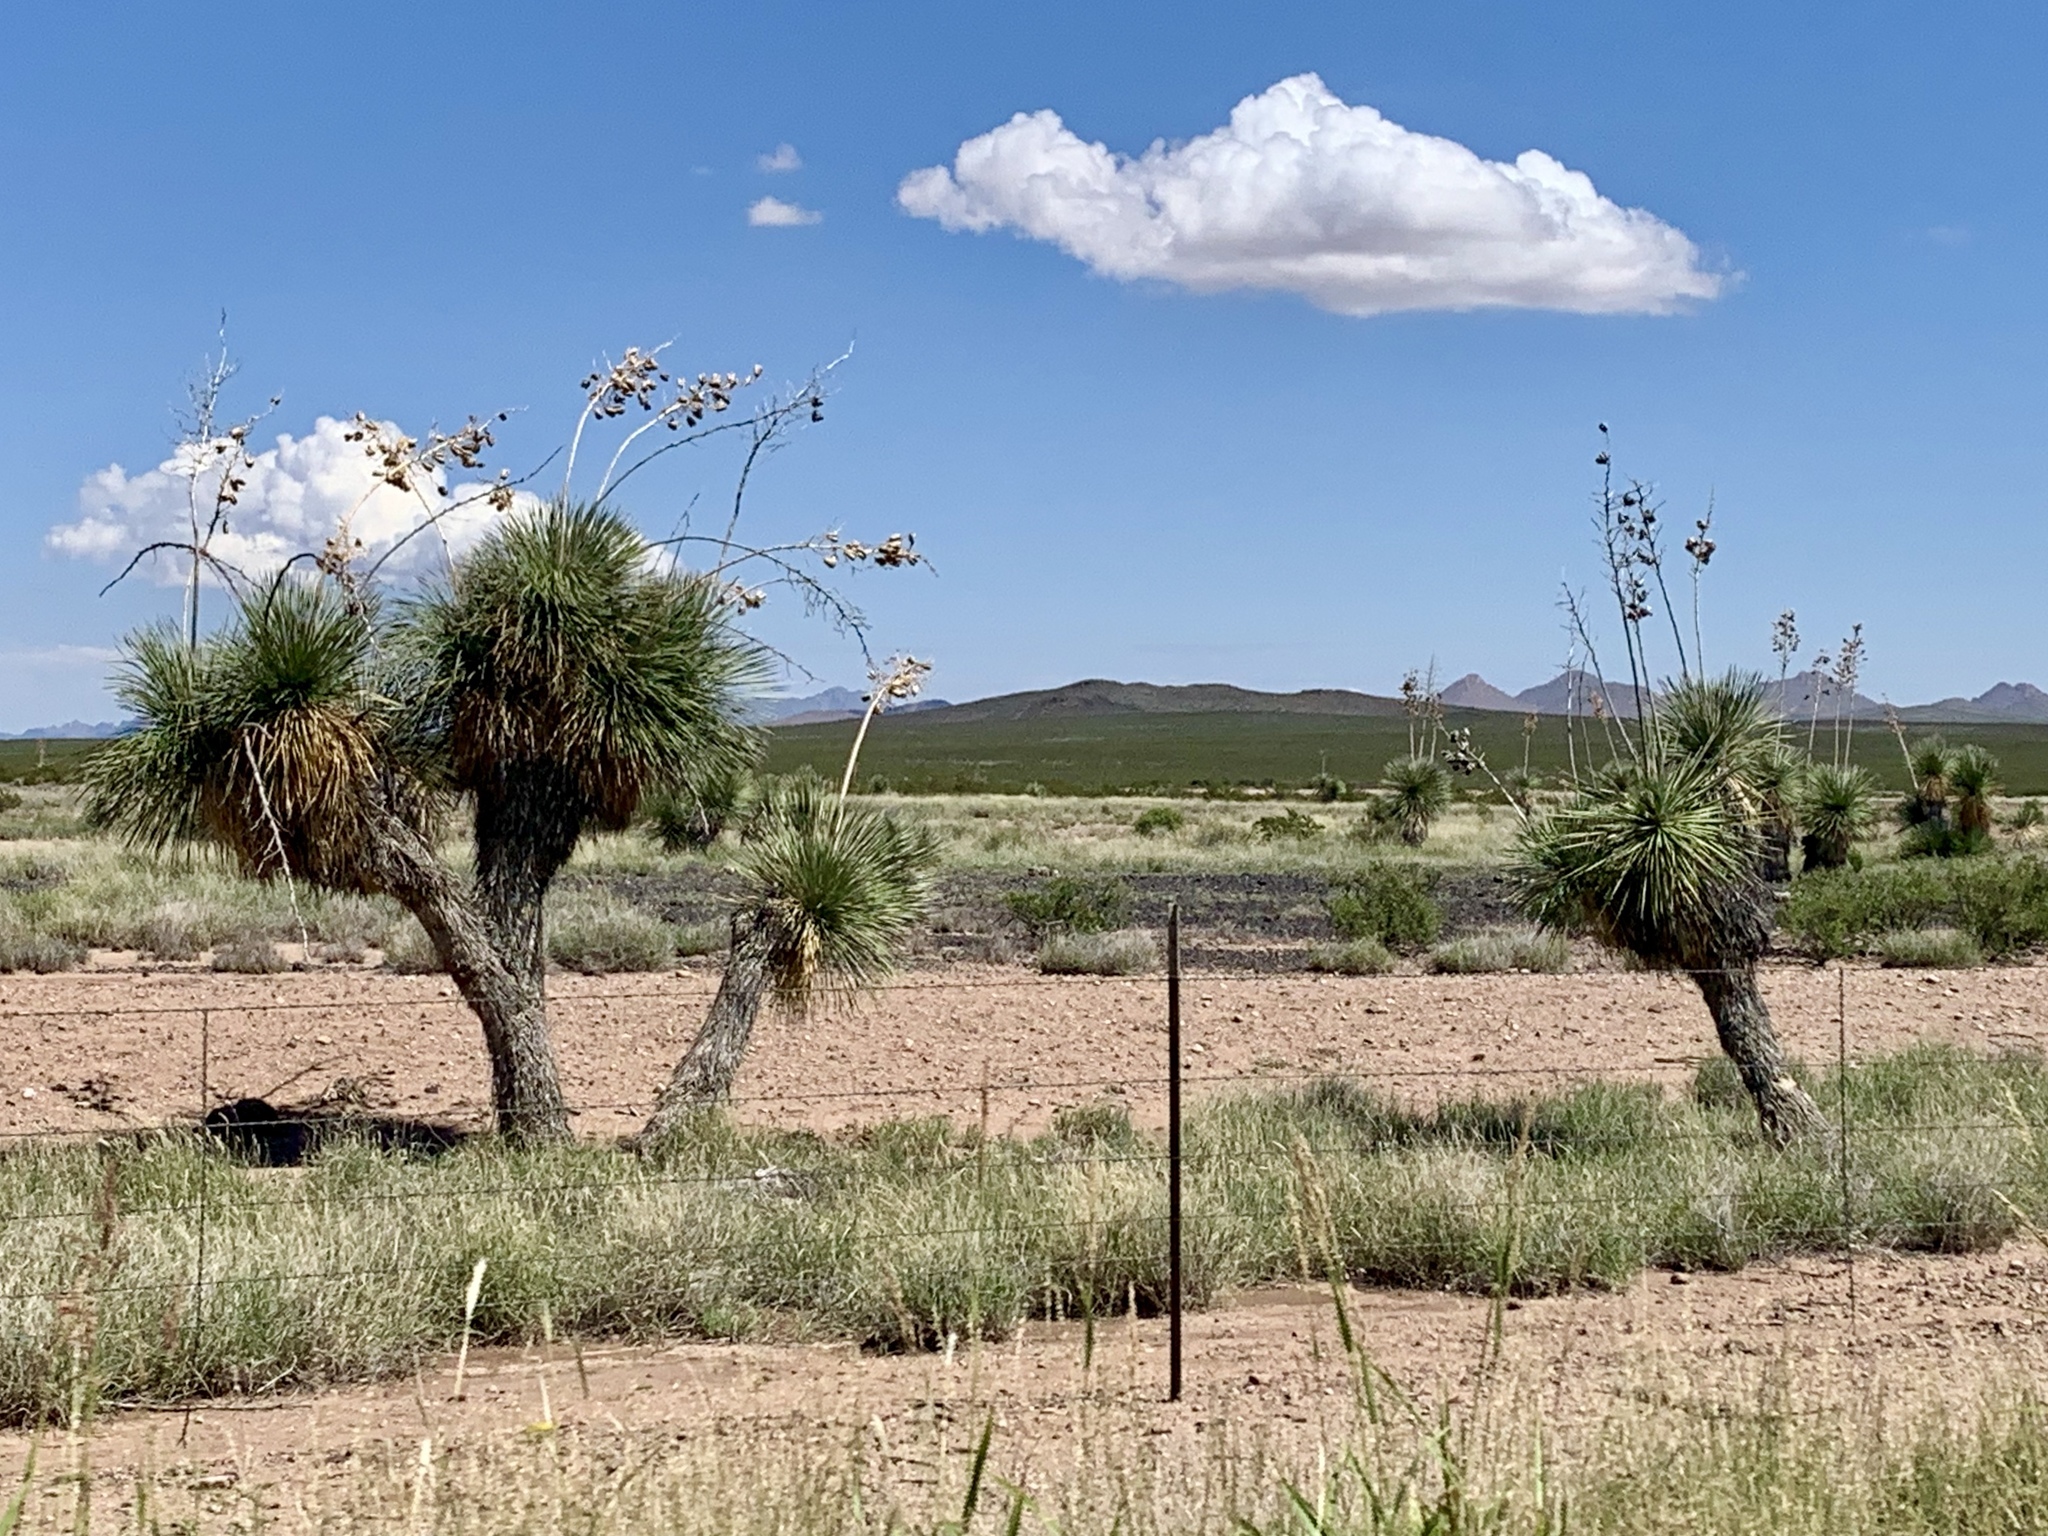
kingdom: Plantae
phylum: Tracheophyta
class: Liliopsida
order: Asparagales
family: Asparagaceae
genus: Yucca
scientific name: Yucca elata
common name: Palmella
